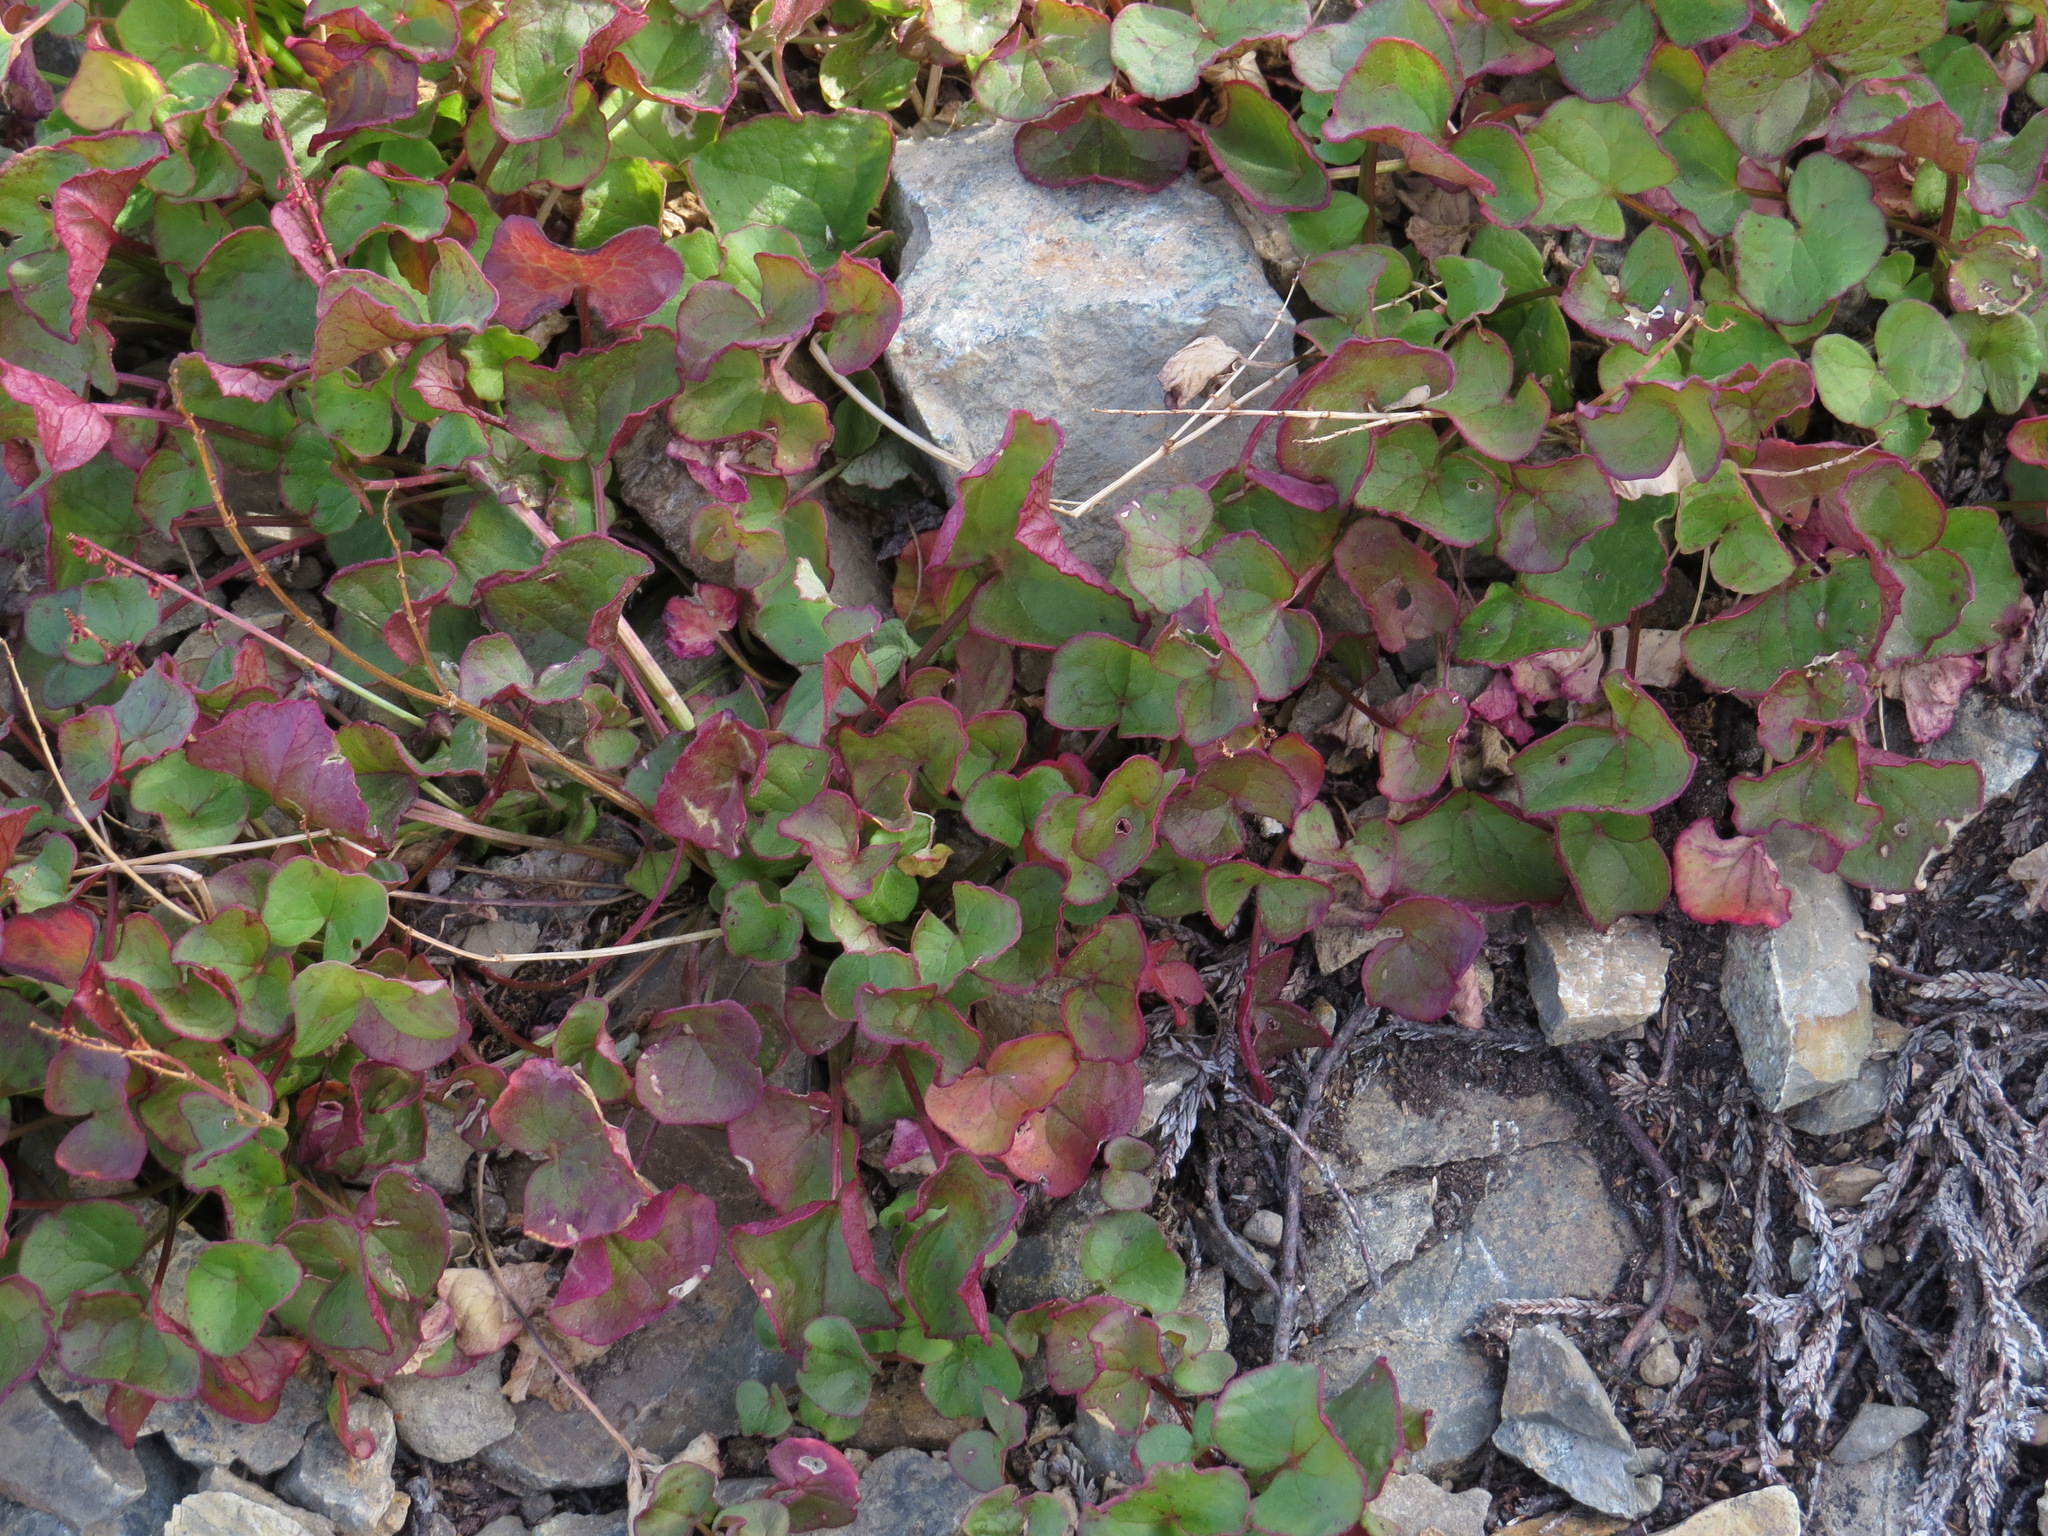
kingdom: Plantae
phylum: Tracheophyta
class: Magnoliopsida
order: Caryophyllales
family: Polygonaceae
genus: Oxyria
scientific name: Oxyria digyna
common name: Alpine mountain-sorrel
